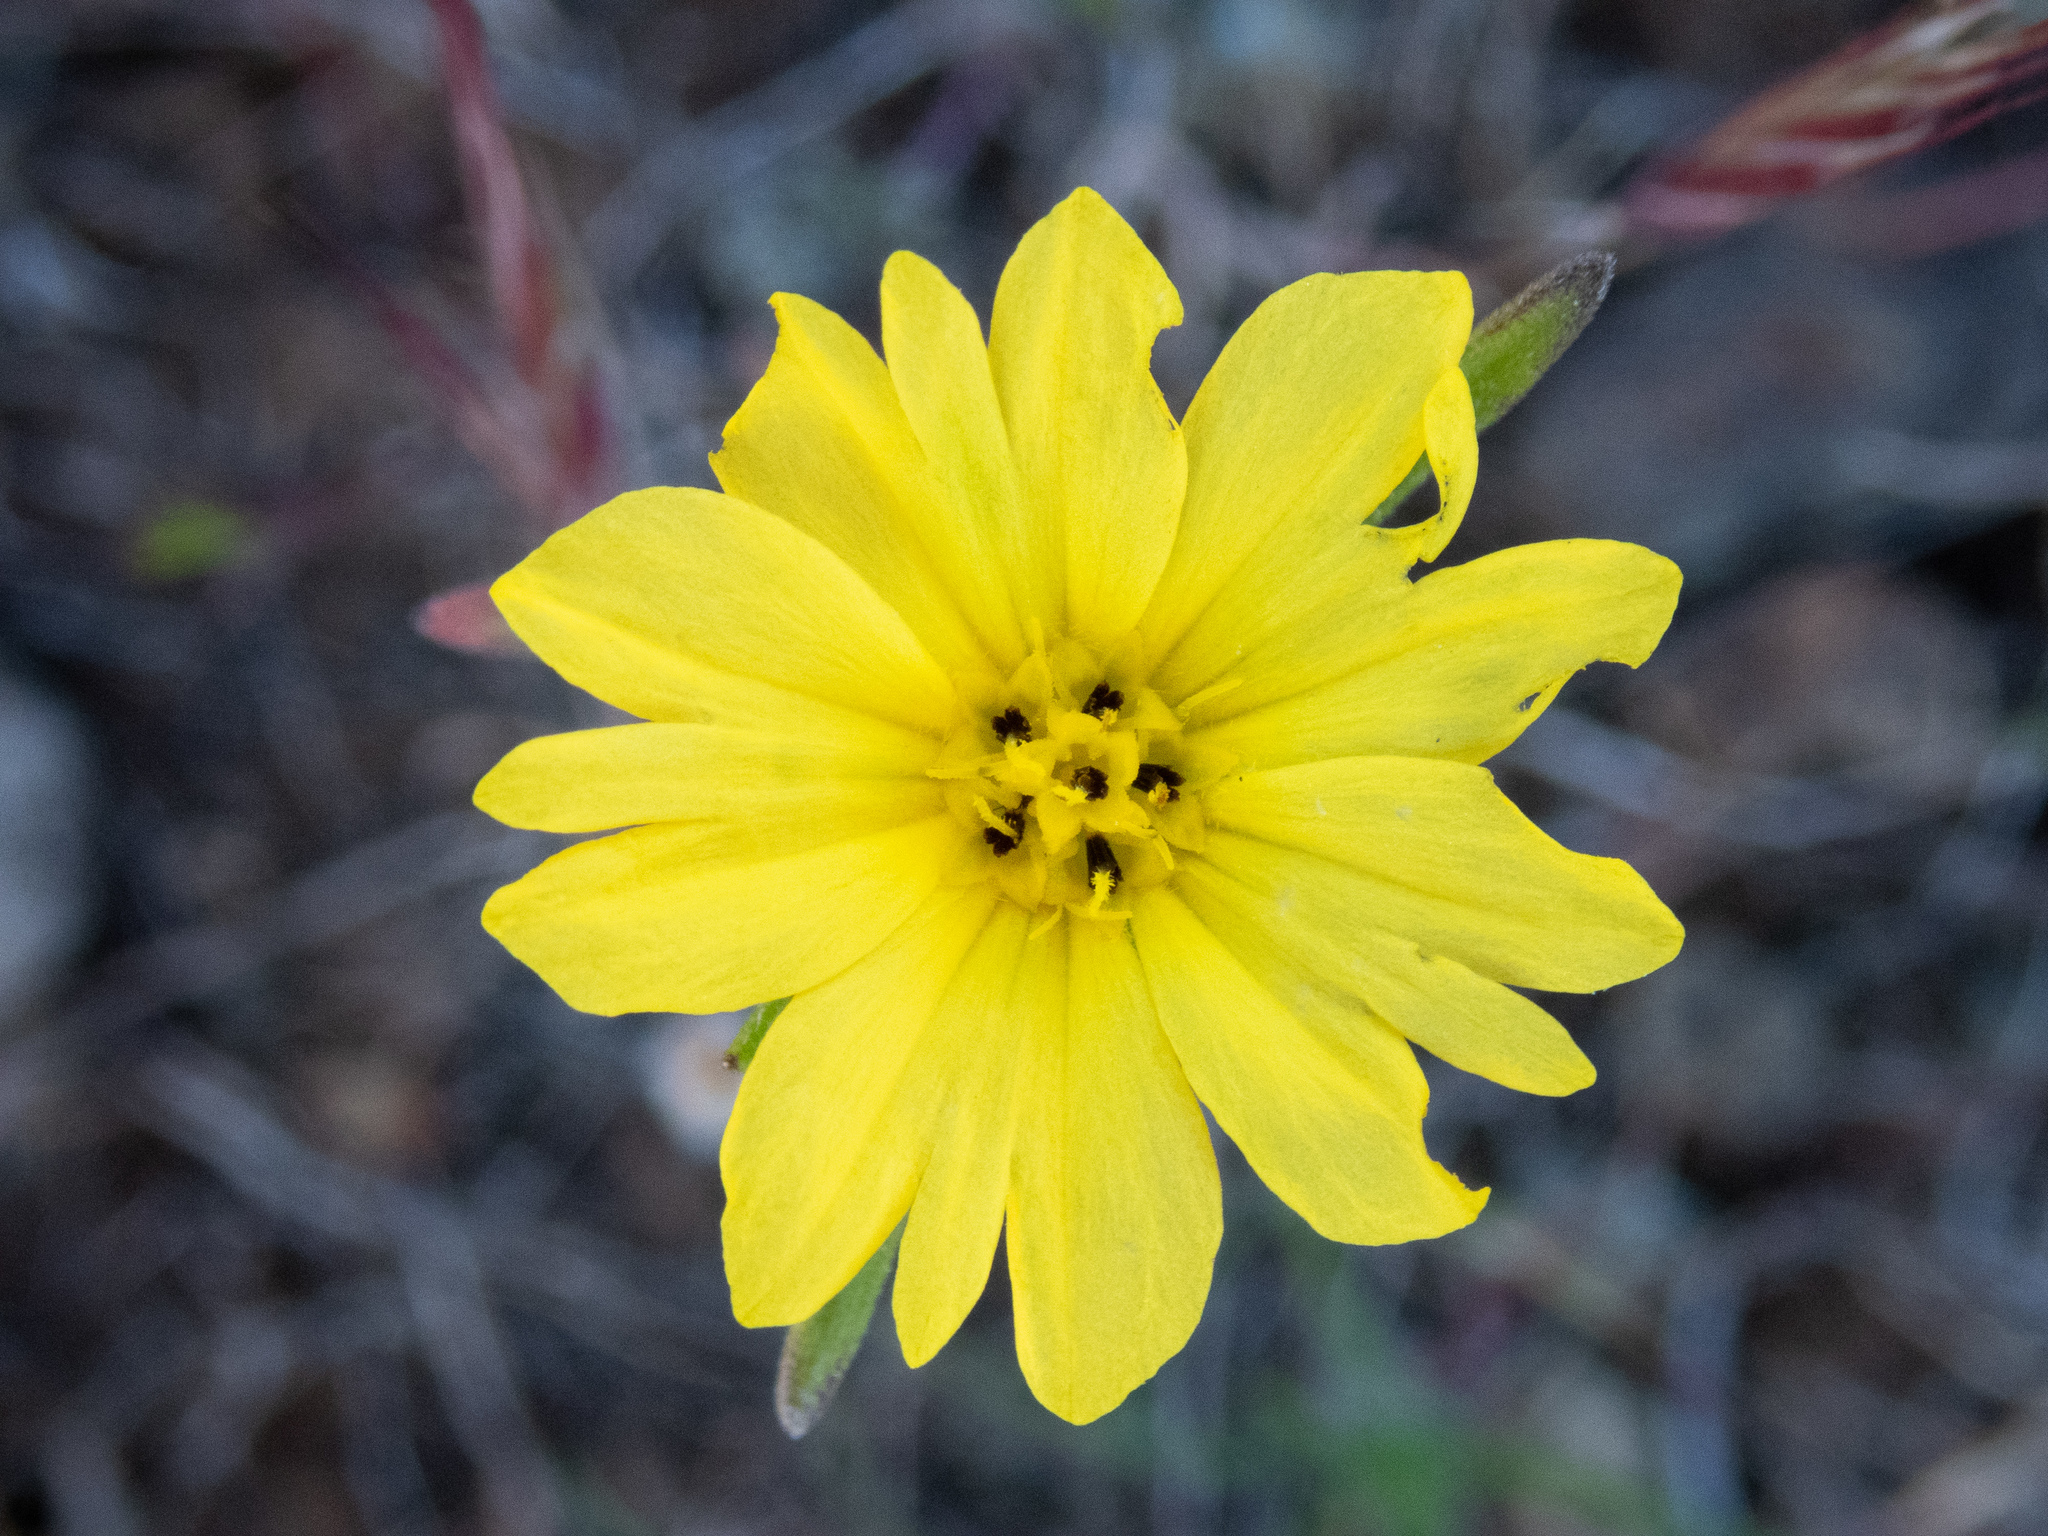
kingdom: Plantae
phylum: Tracheophyta
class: Magnoliopsida
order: Asterales
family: Asteraceae
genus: Lagophylla
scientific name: Lagophylla minor
